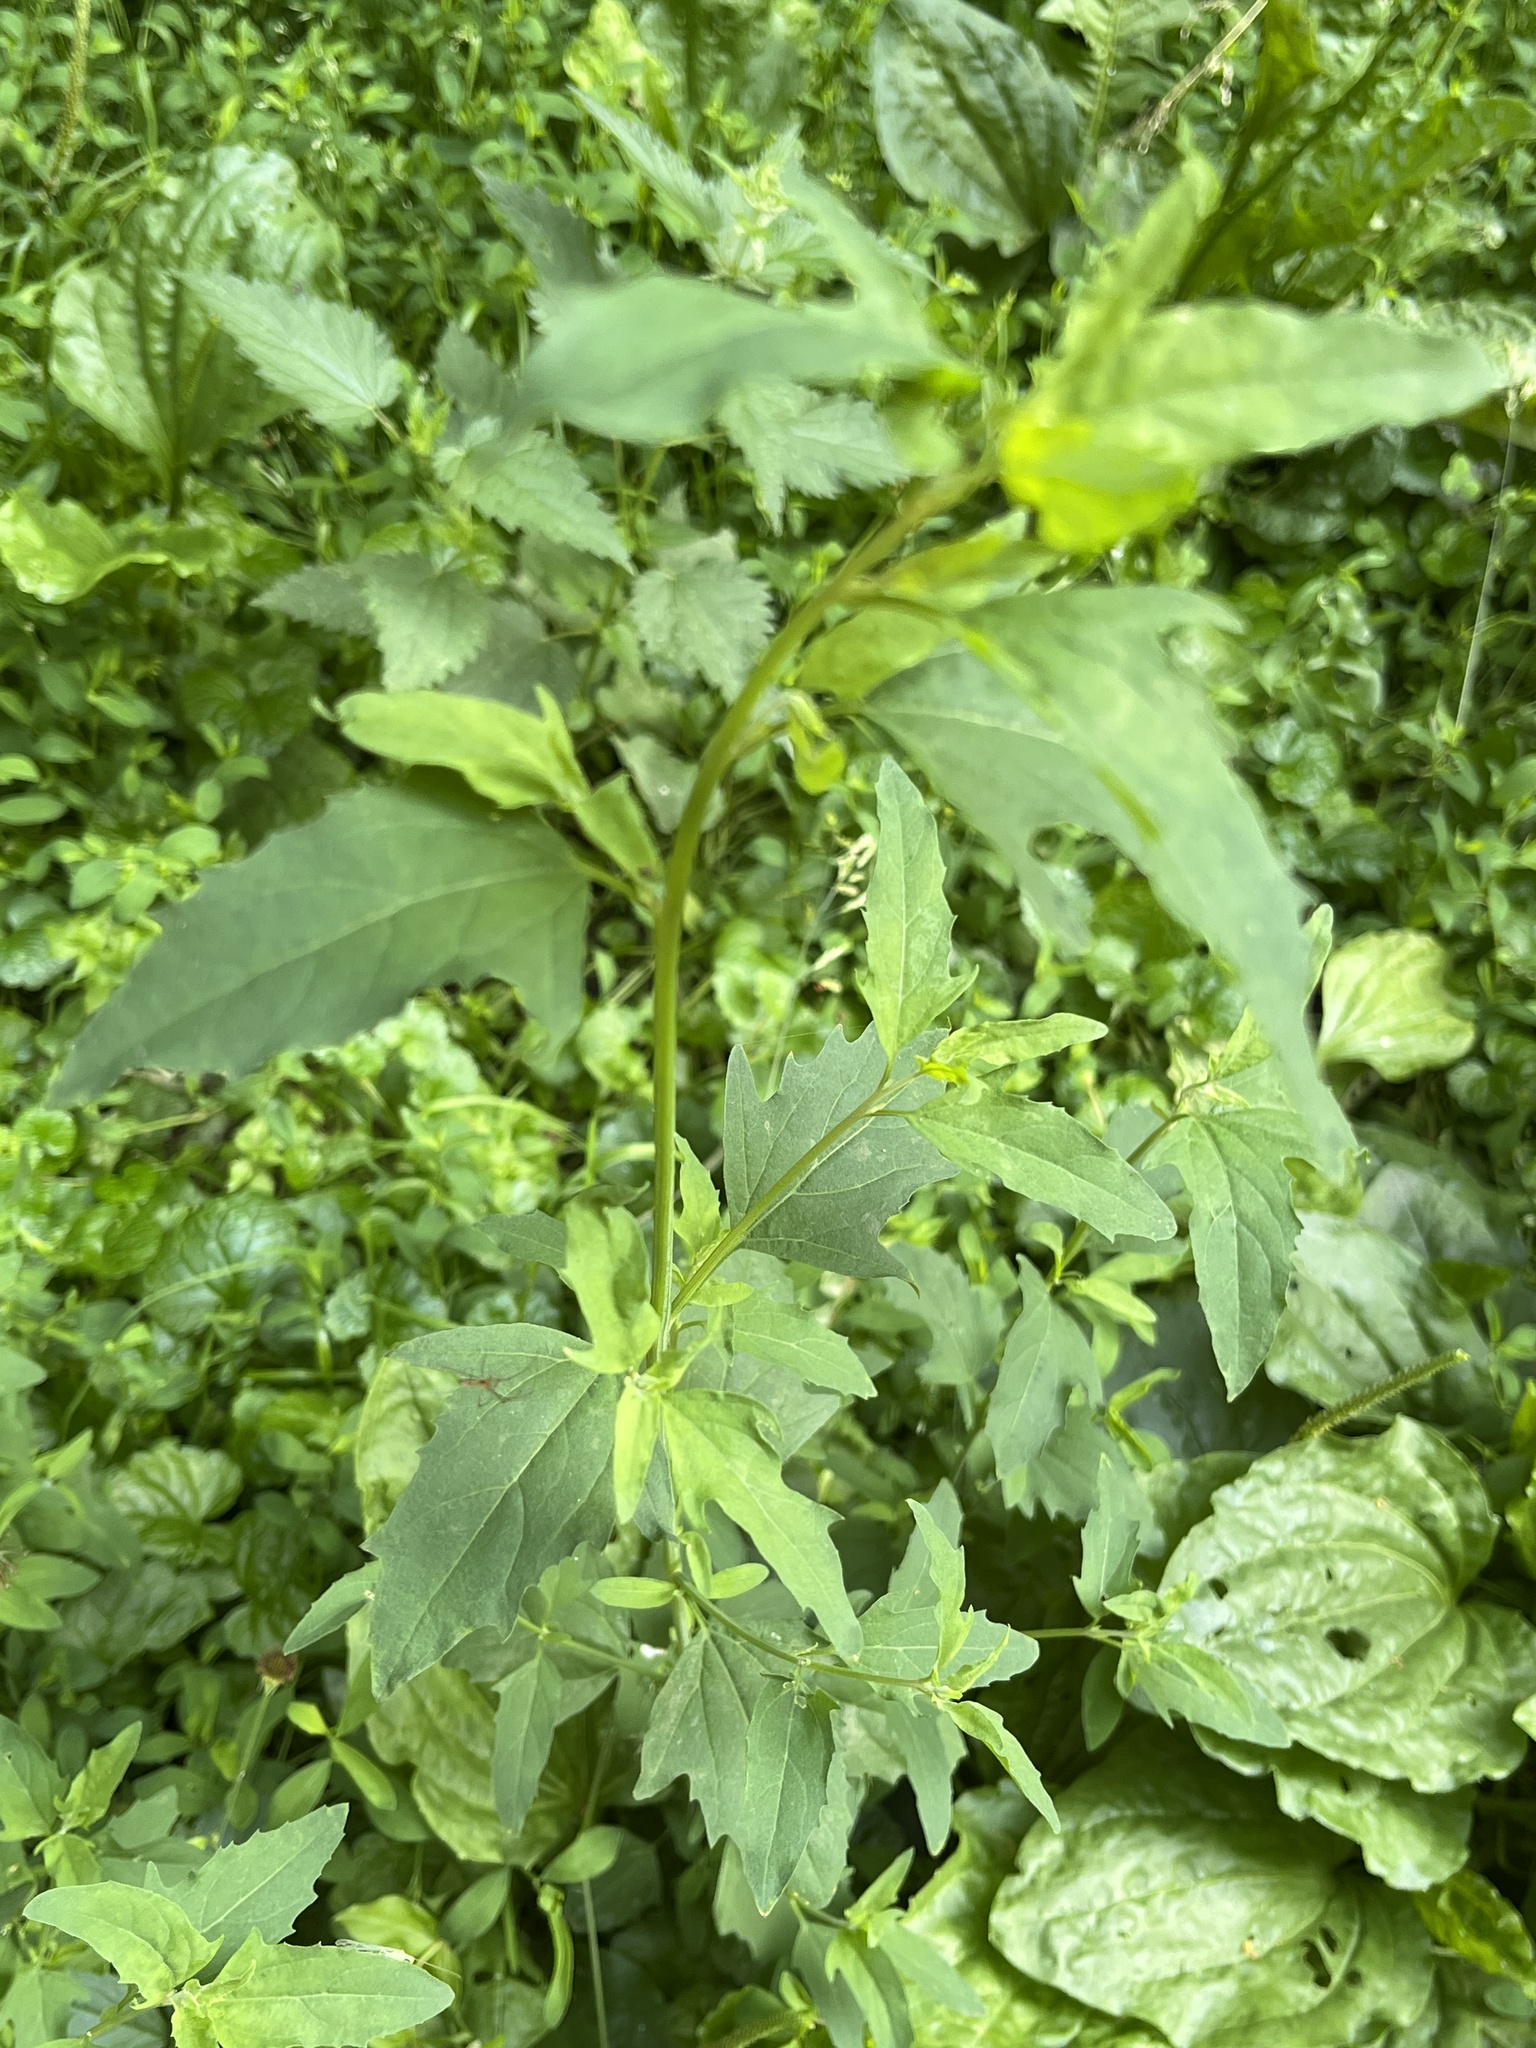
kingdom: Plantae
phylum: Tracheophyta
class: Magnoliopsida
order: Caryophyllales
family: Amaranthaceae
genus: Atriplex
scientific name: Atriplex patula
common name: Common orache
